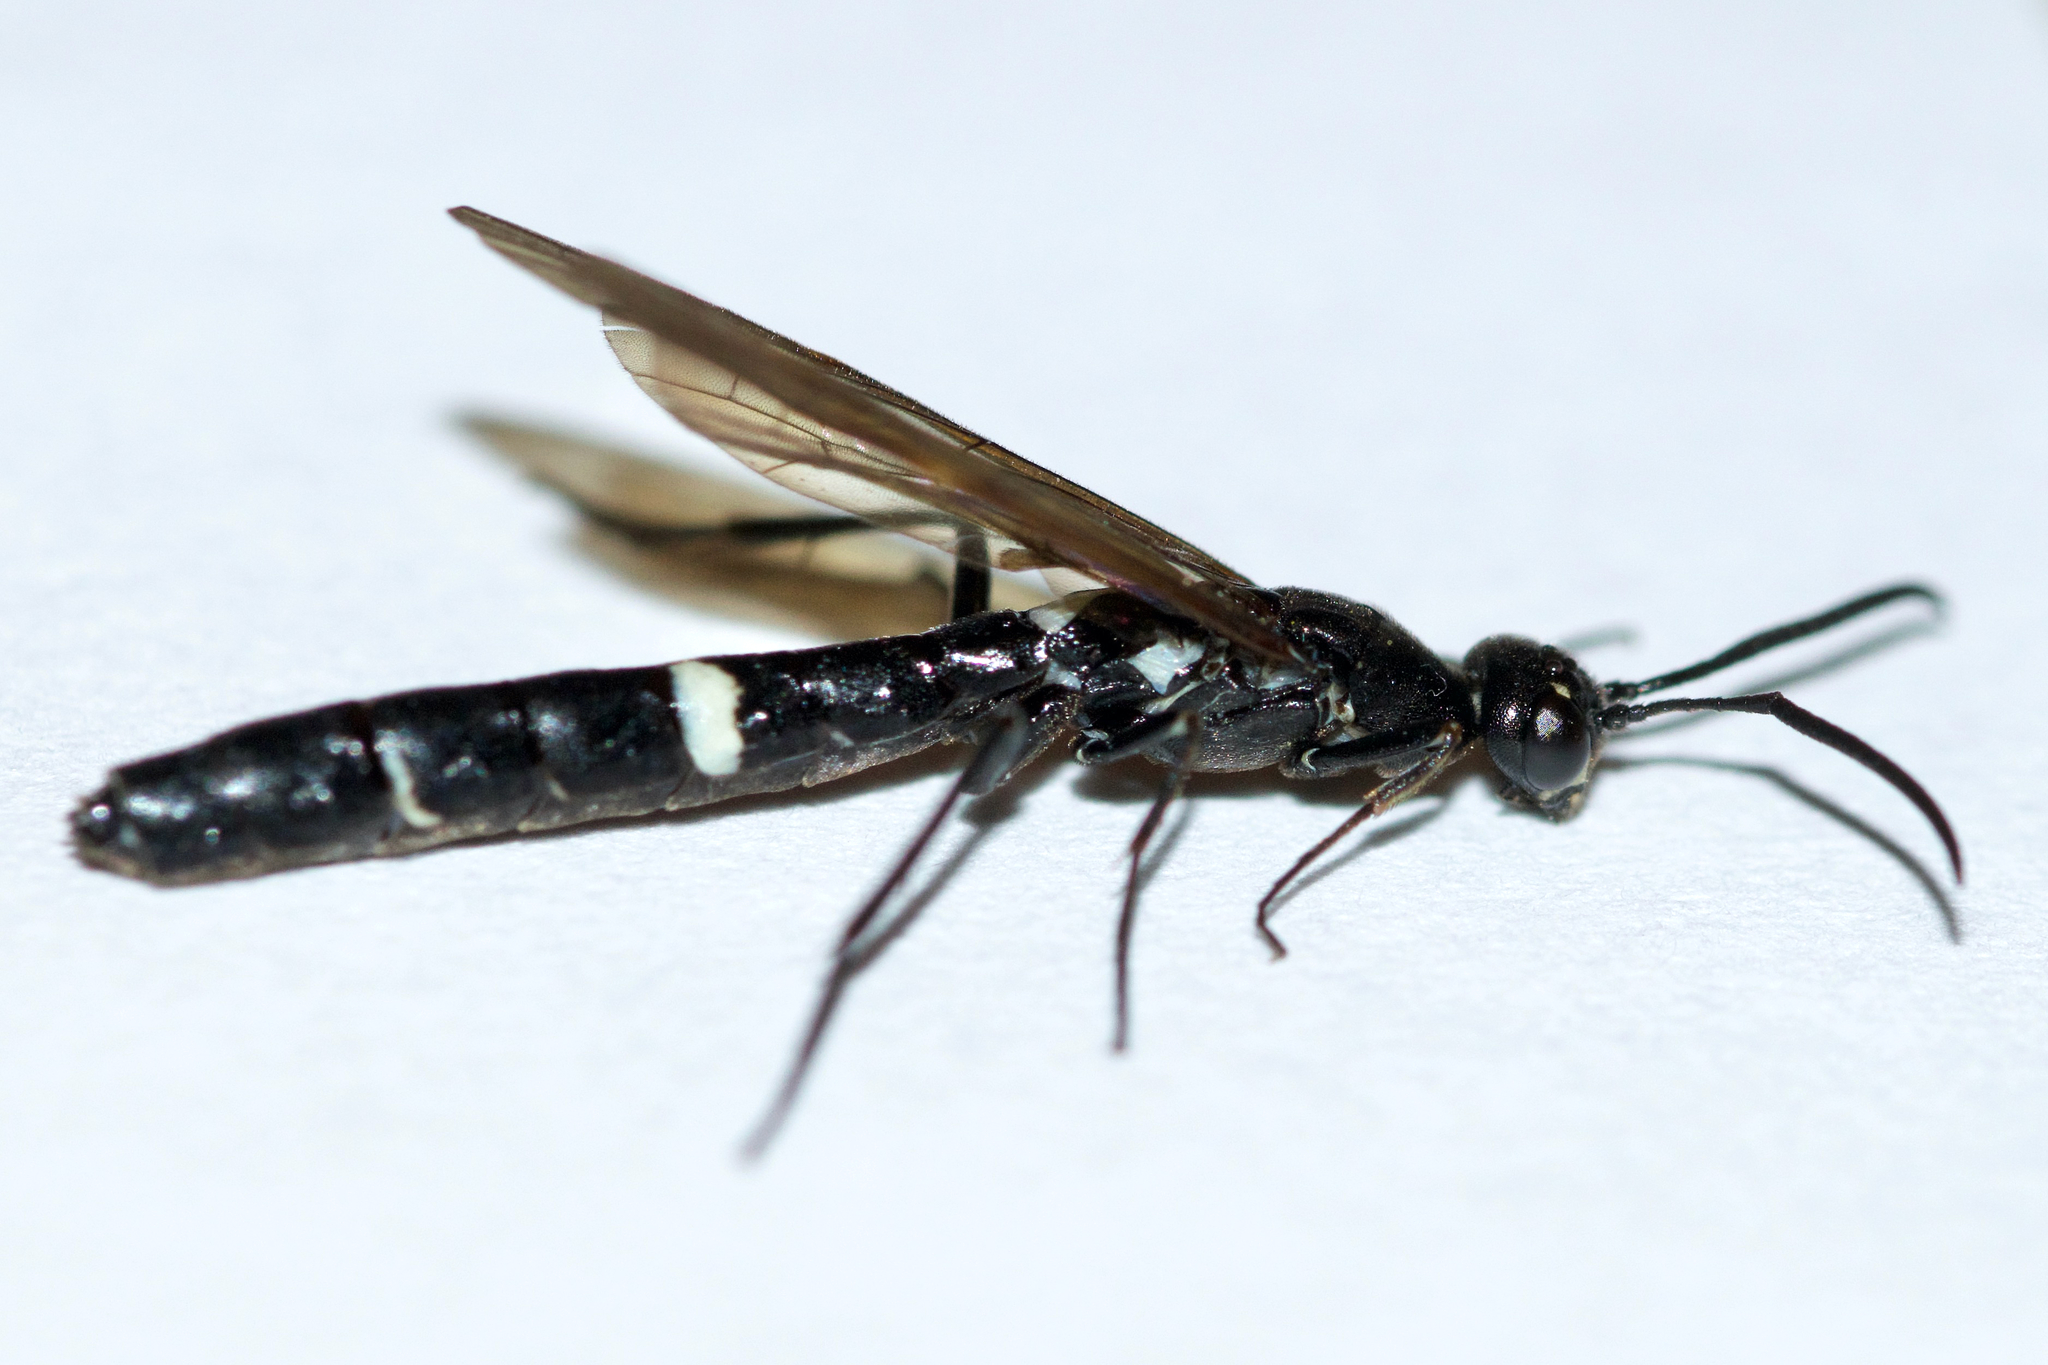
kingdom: Animalia
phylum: Arthropoda
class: Insecta
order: Hymenoptera
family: Cephidae
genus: Phylloecus
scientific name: Phylloecus trimaculatus
